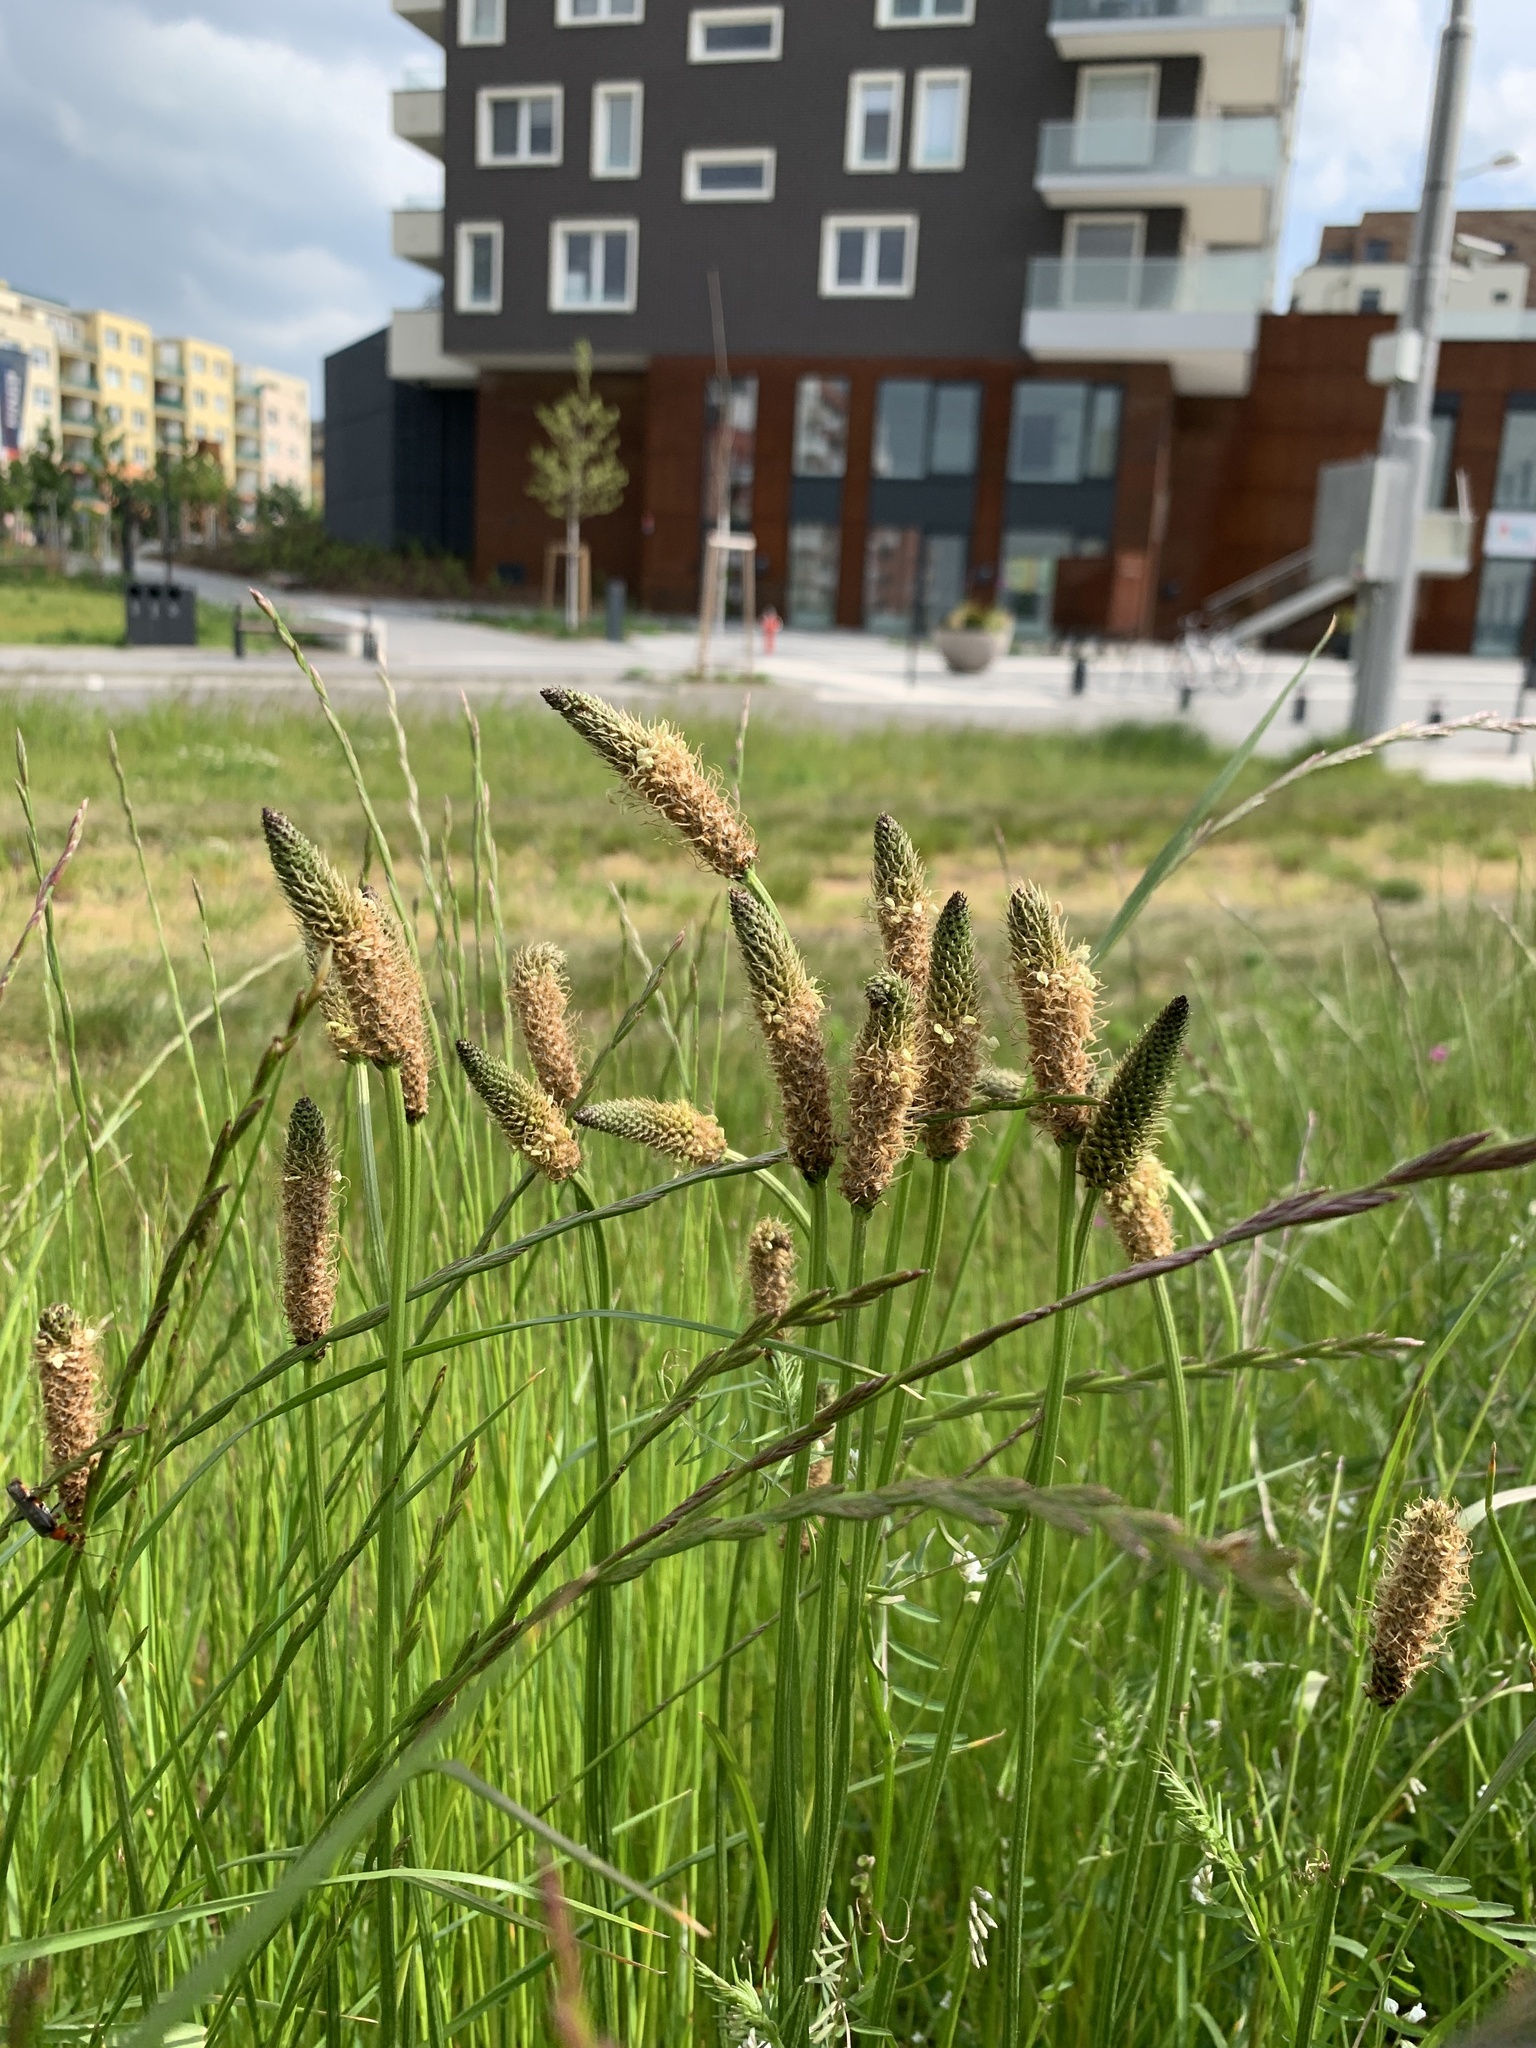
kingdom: Plantae
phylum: Tracheophyta
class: Magnoliopsida
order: Lamiales
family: Plantaginaceae
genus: Plantago
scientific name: Plantago lanceolata
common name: Ribwort plantain
